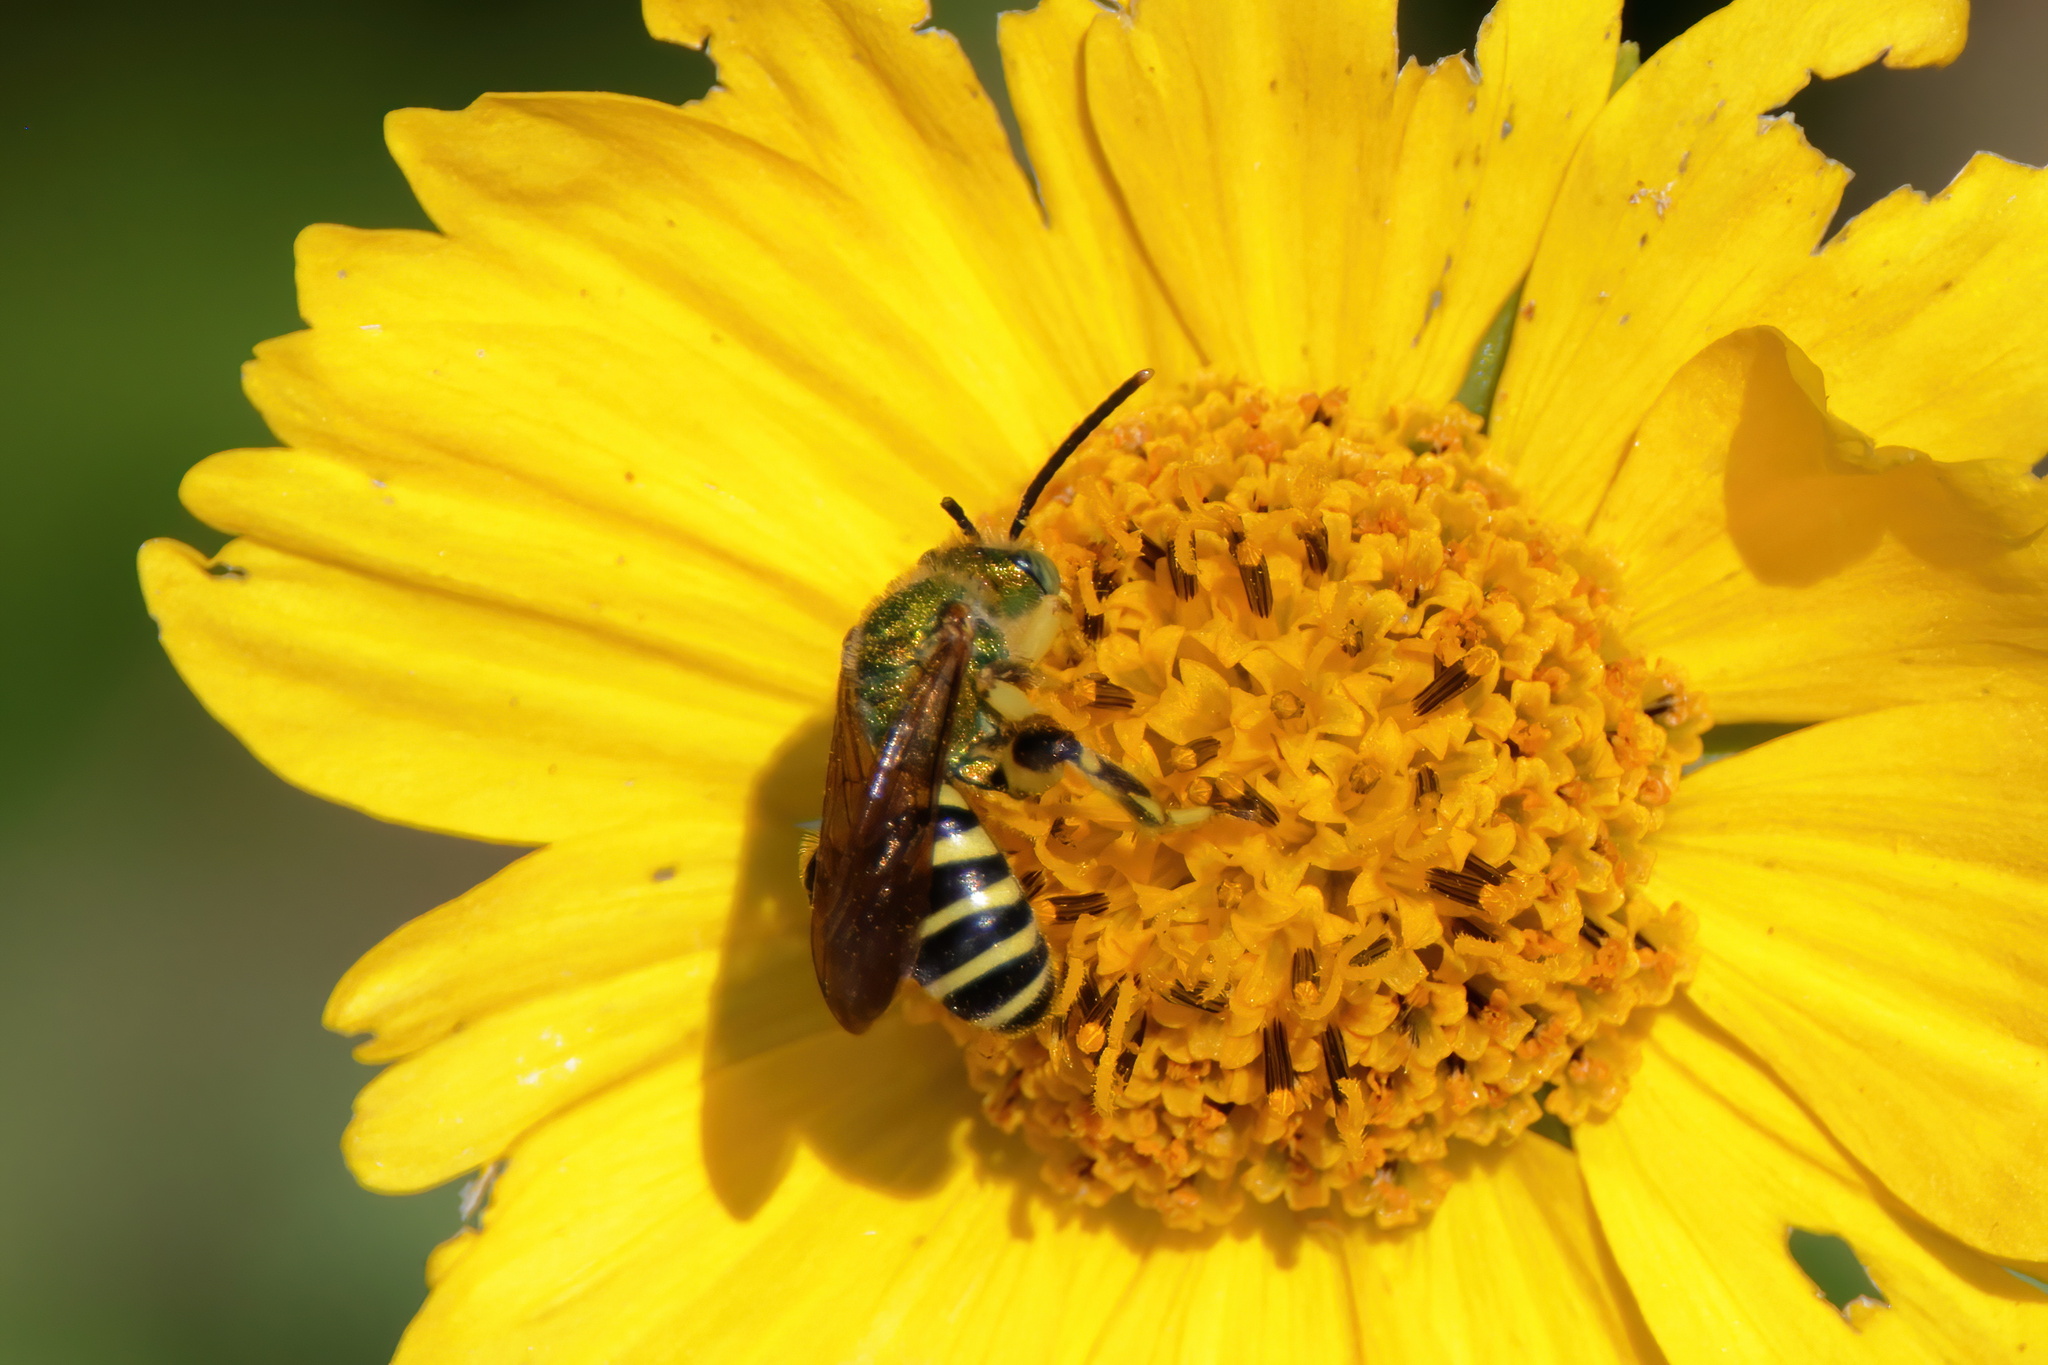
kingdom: Animalia
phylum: Arthropoda
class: Insecta
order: Hymenoptera
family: Halictidae
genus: Agapostemon
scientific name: Agapostemon splendens
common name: Brown-winged striped sweat bee
